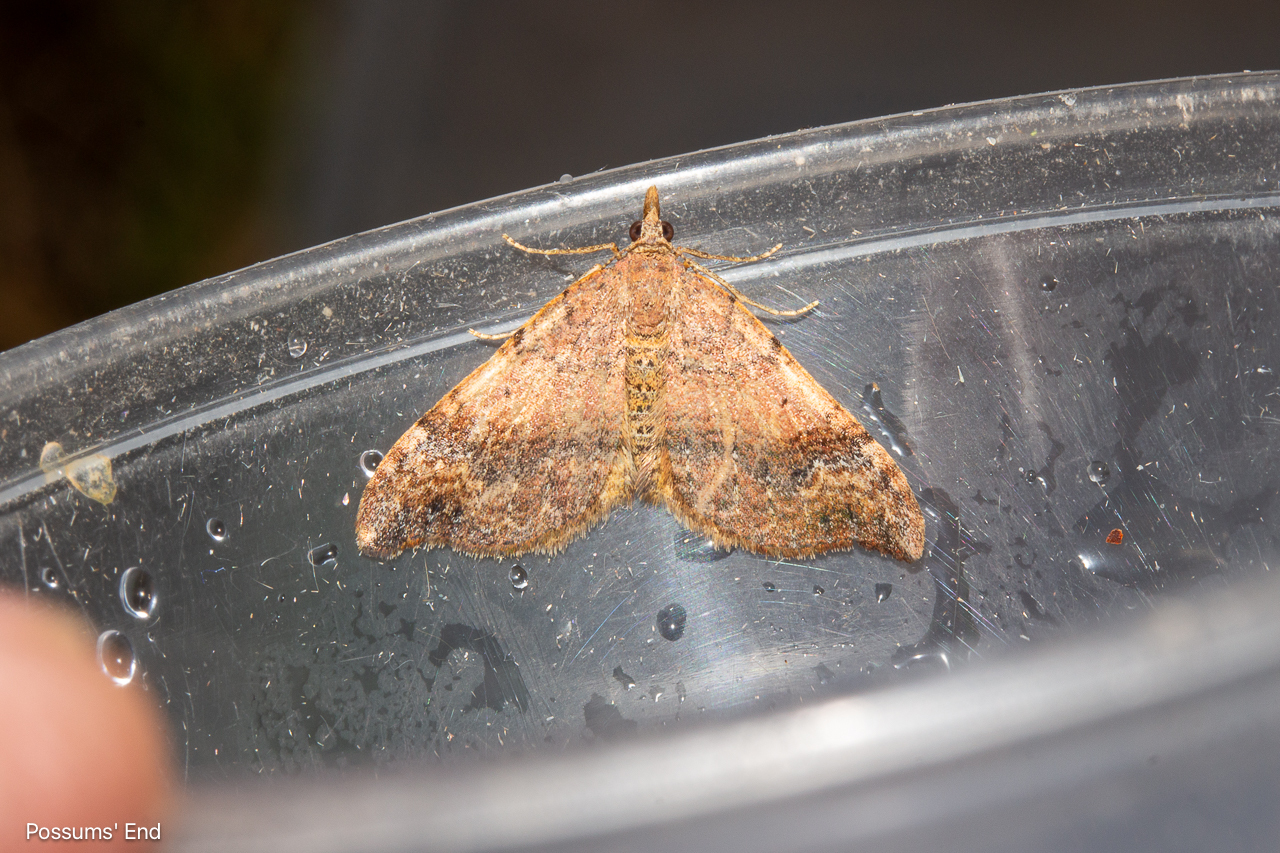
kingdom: Animalia
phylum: Arthropoda
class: Insecta
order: Lepidoptera
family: Geometridae
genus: Homodotis
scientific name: Homodotis megaspilata
